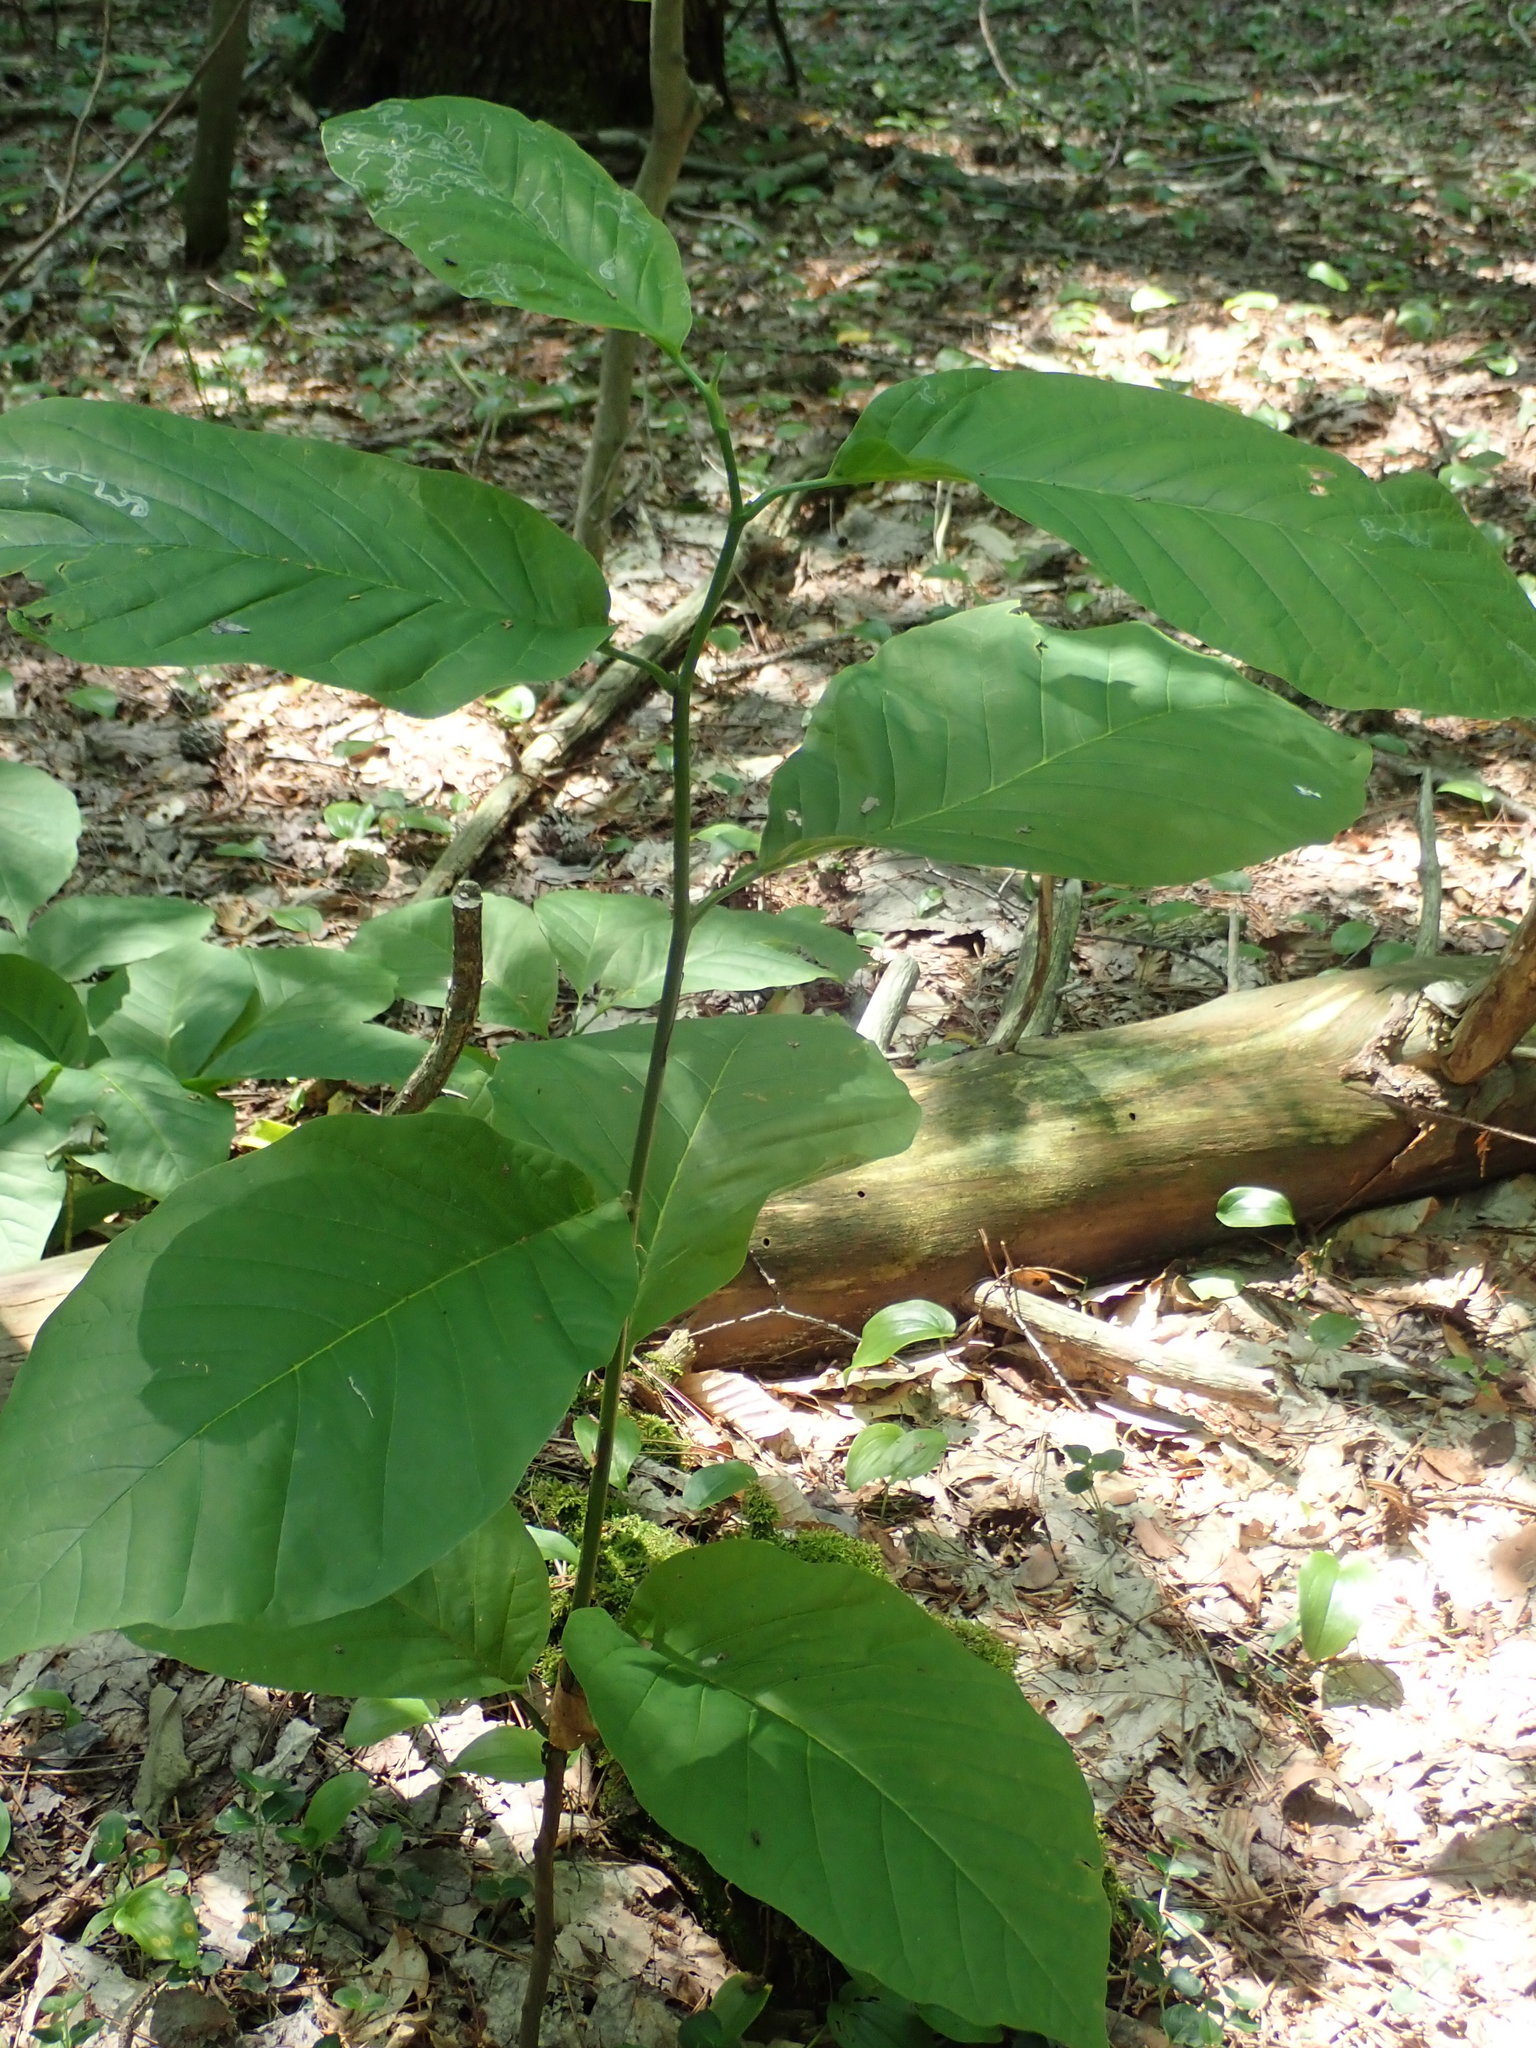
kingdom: Plantae
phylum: Tracheophyta
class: Magnoliopsida
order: Magnoliales
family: Magnoliaceae
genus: Magnolia
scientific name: Magnolia acuminata
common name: Cucumber magnolia
